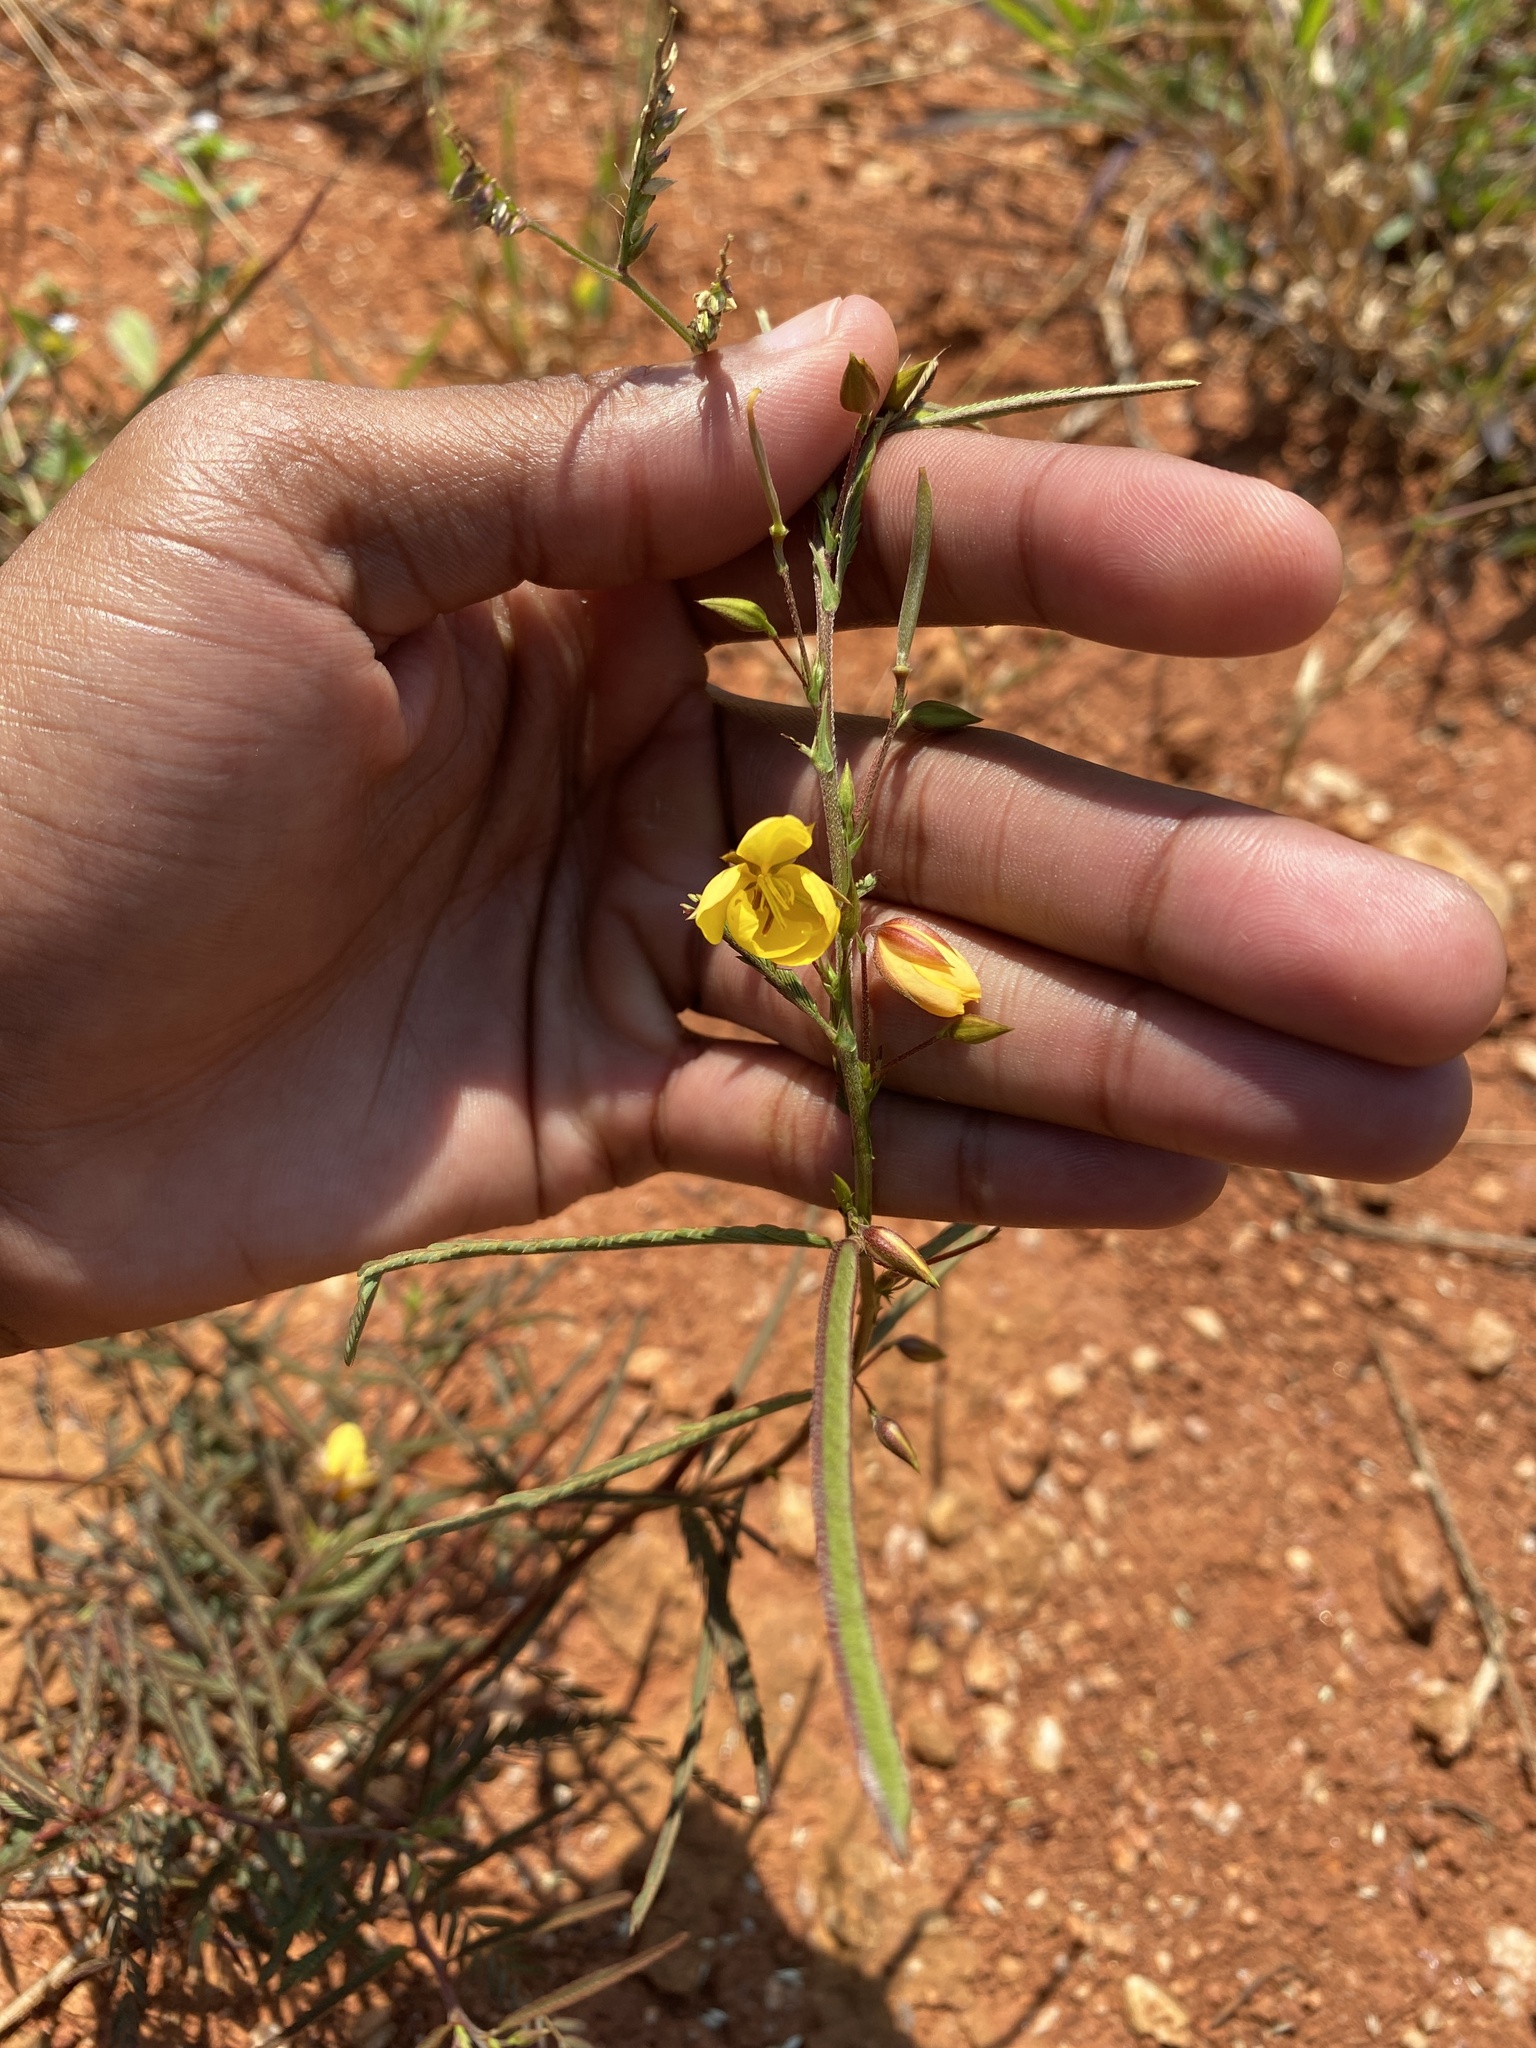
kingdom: Plantae
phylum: Tracheophyta
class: Magnoliopsida
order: Fabales
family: Fabaceae
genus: Chamaecrista
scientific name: Chamaecrista mimosoides
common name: Fish-bone cassia
